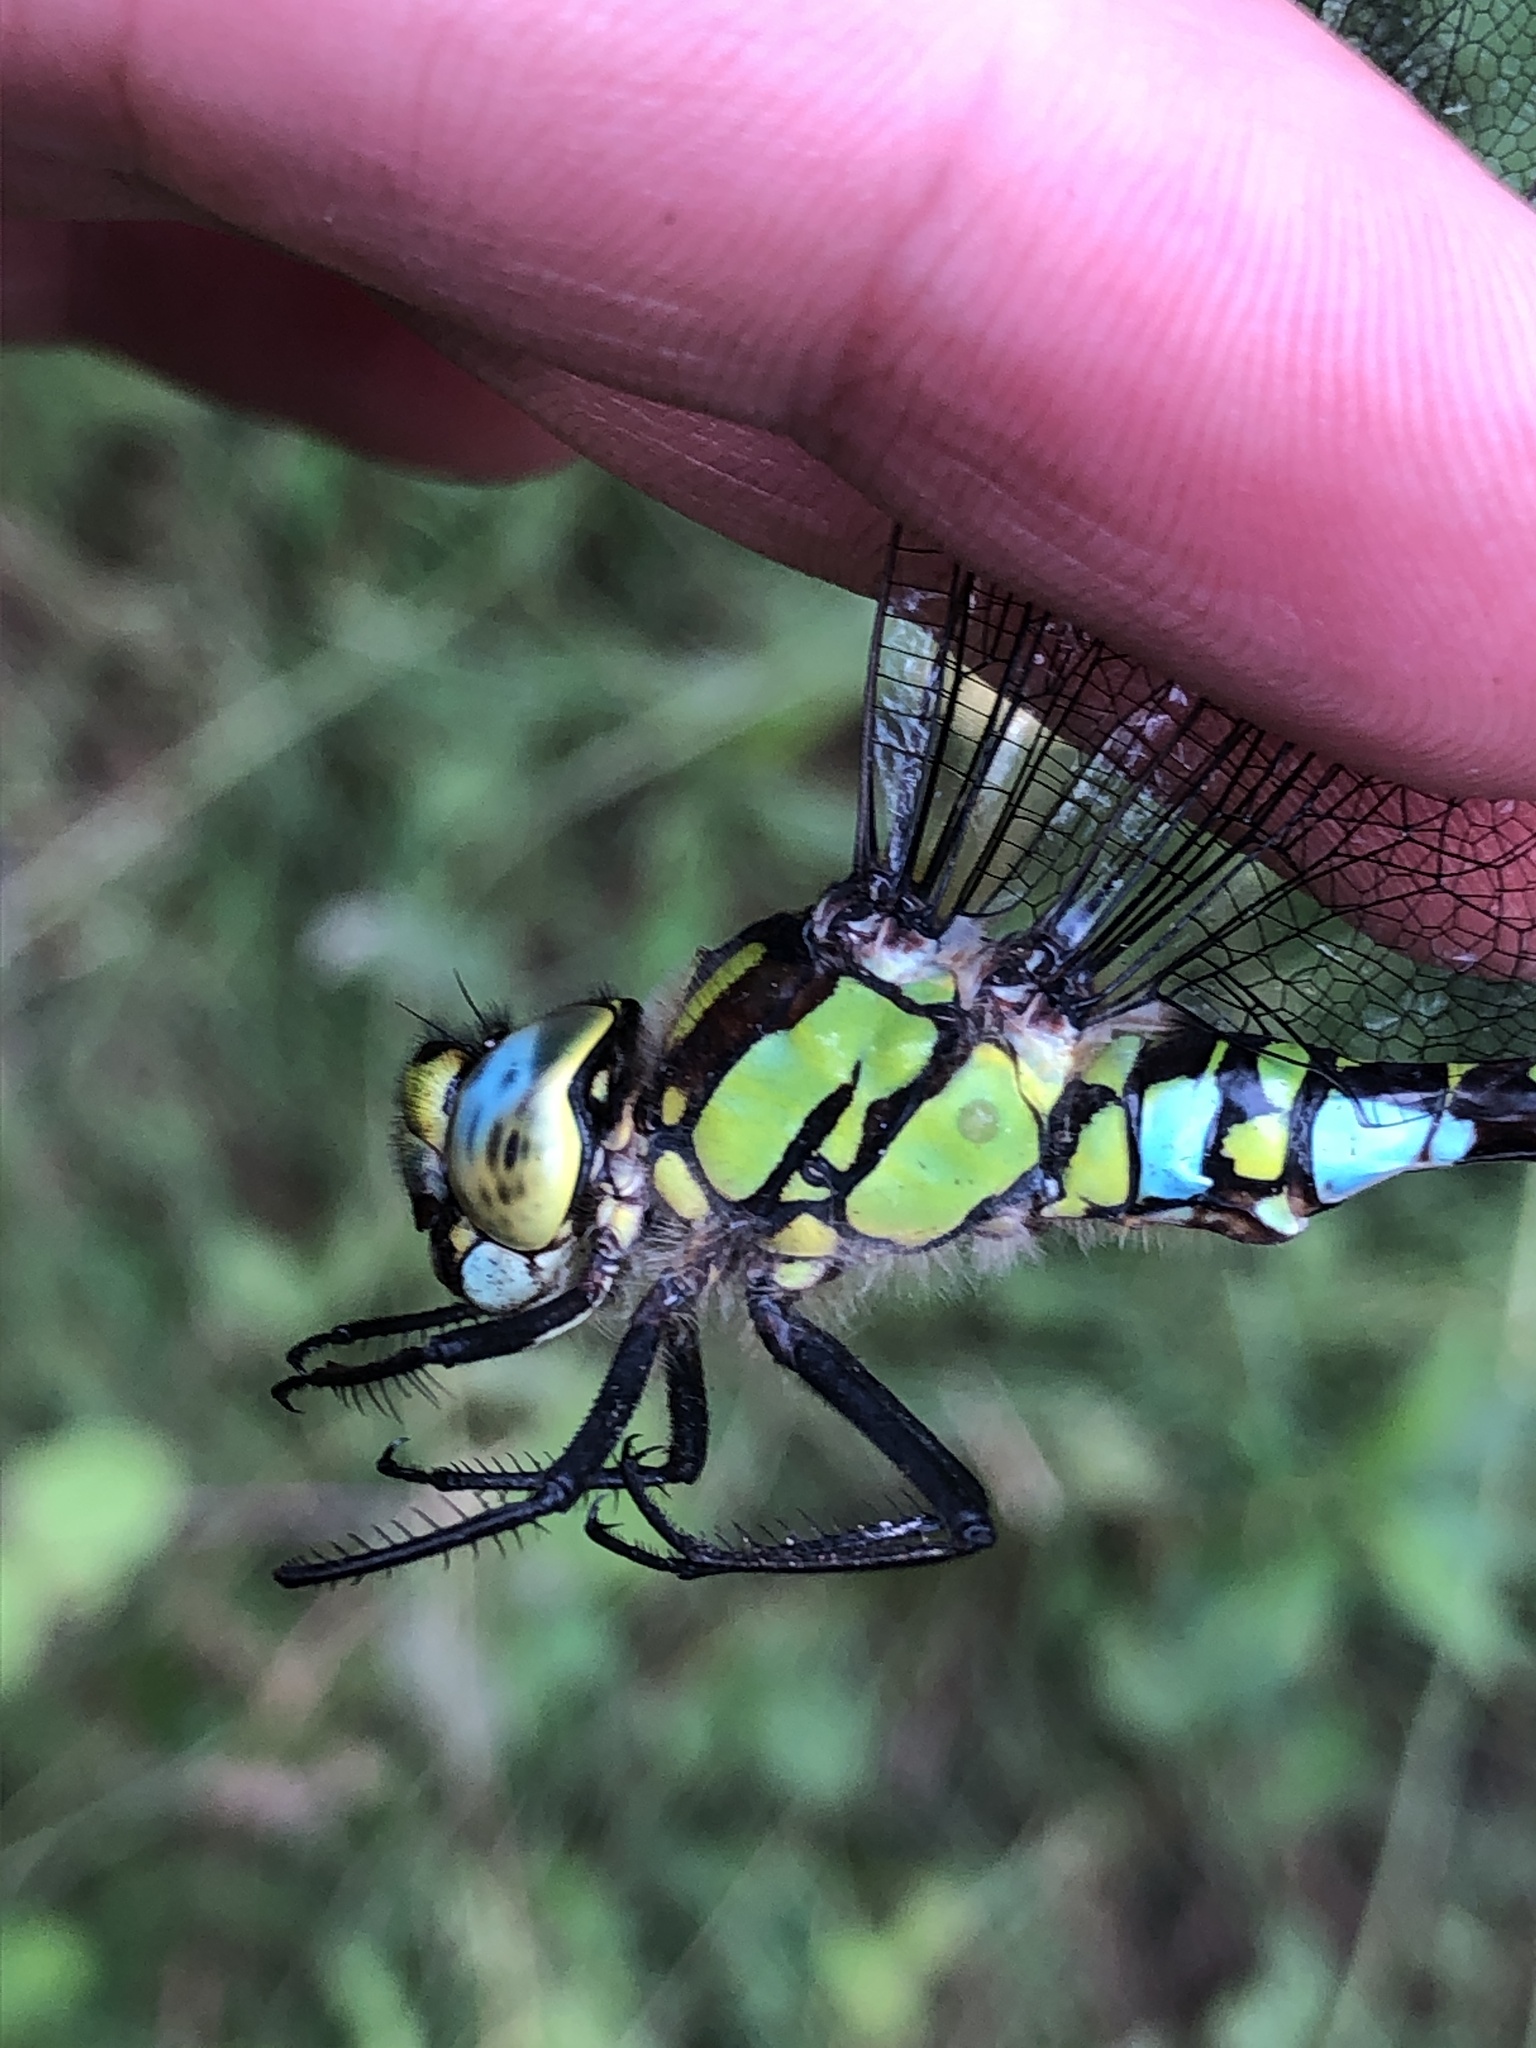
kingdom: Animalia
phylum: Arthropoda
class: Insecta
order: Odonata
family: Aeshnidae
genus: Aeshna
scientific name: Aeshna cyanea
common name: Southern hawker
